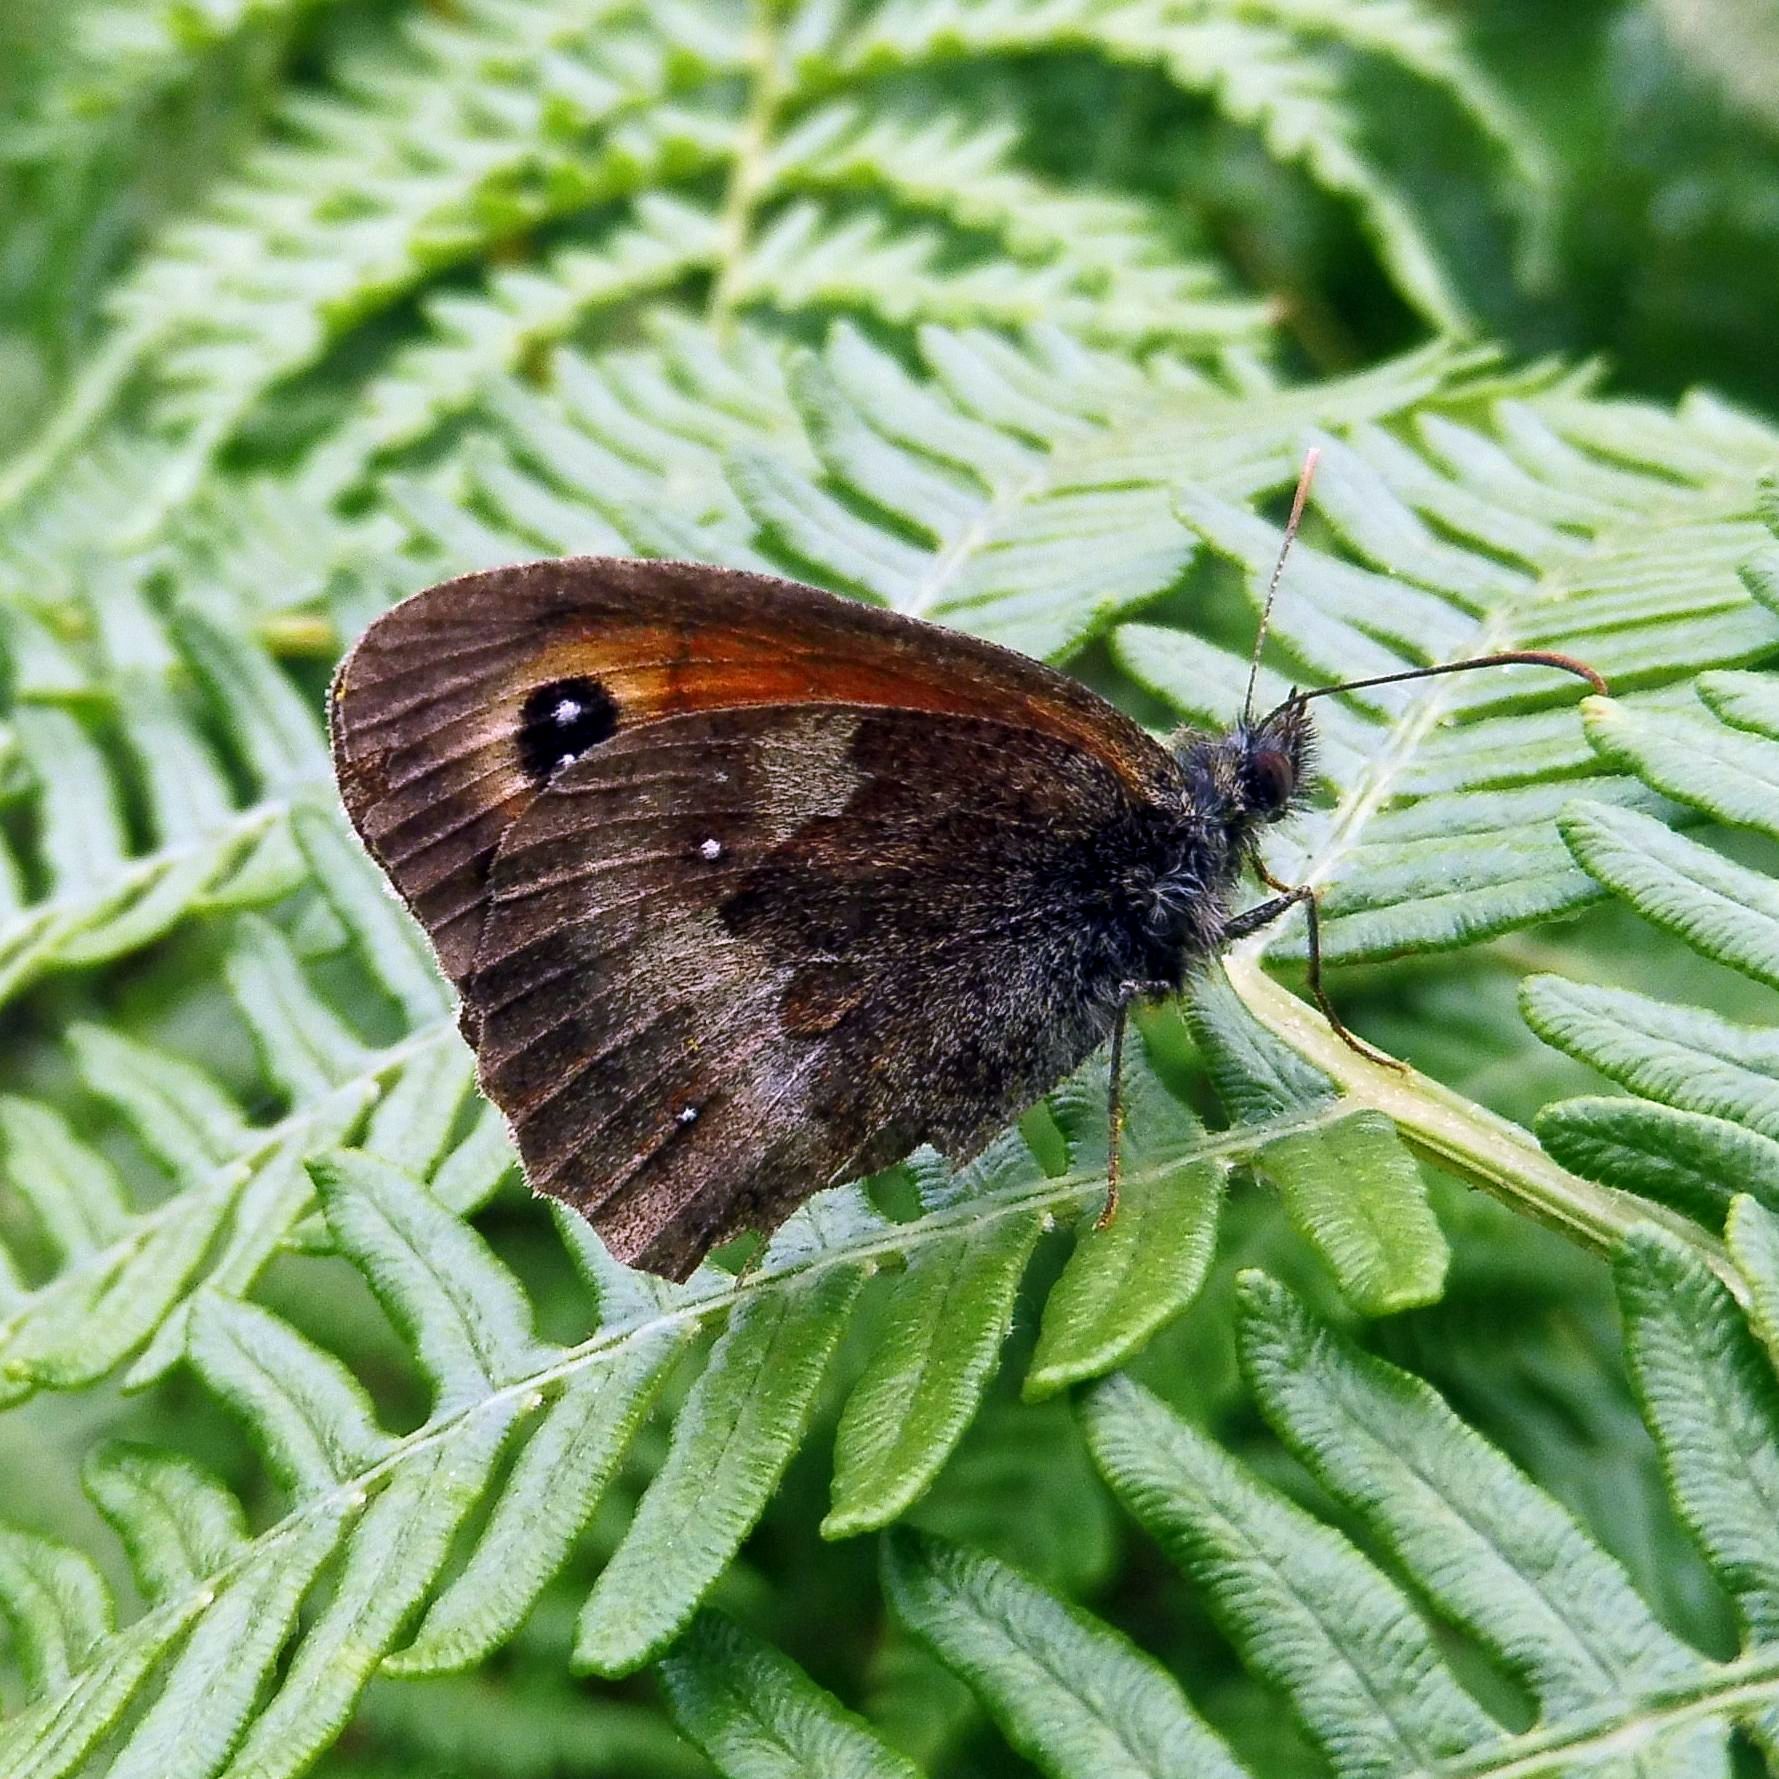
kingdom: Animalia
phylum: Arthropoda
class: Insecta
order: Lepidoptera
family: Nymphalidae
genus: Pyronia
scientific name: Pyronia tithonus
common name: Gatekeeper
